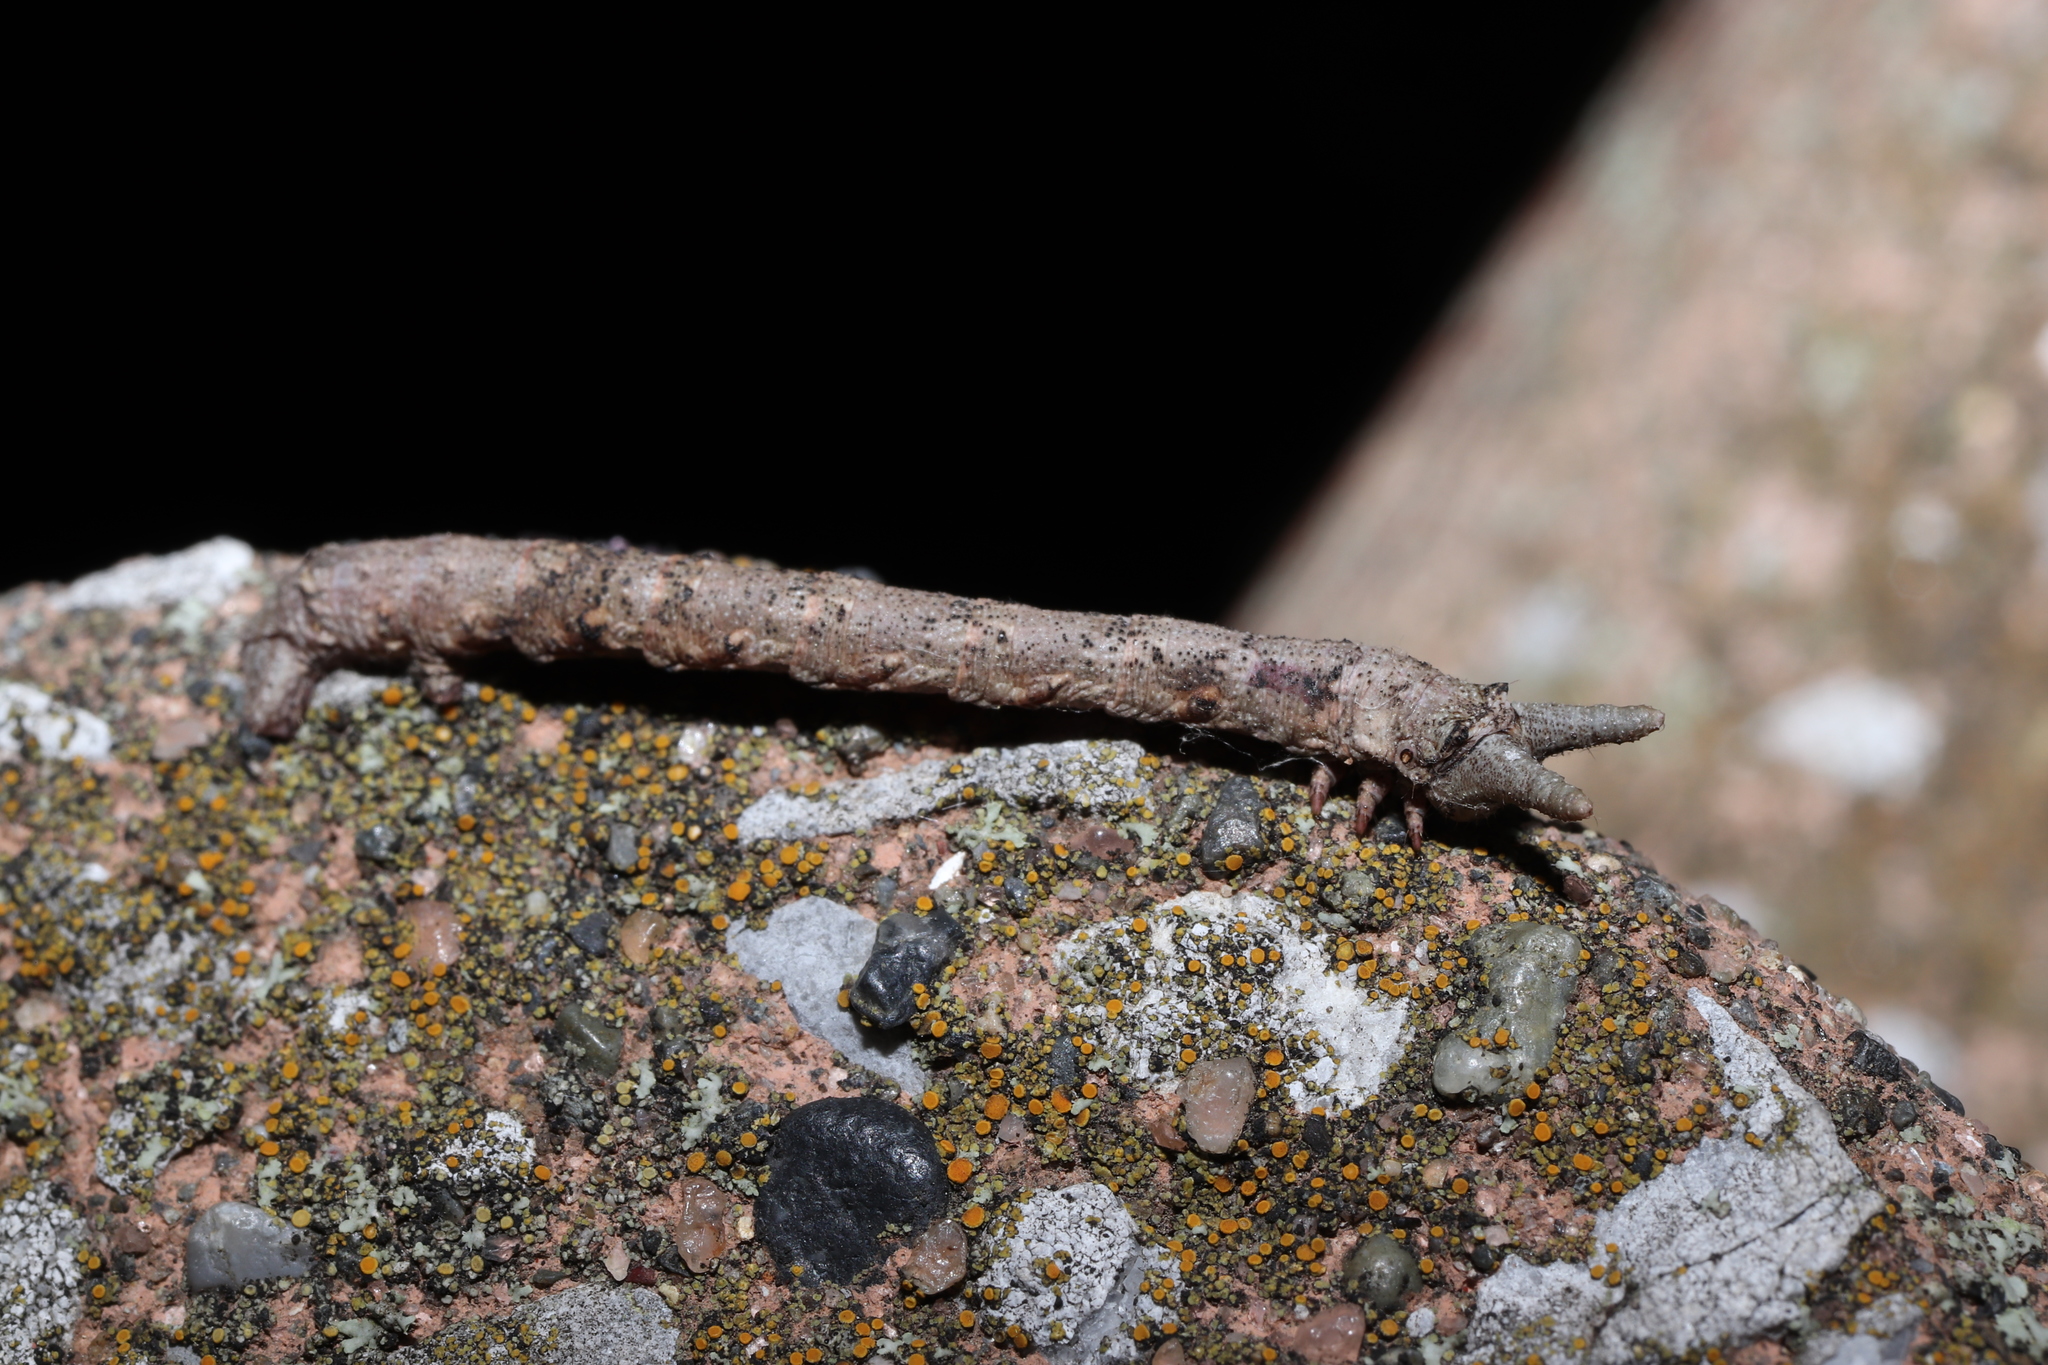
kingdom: Animalia
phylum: Arthropoda
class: Insecta
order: Lepidoptera
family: Geometridae
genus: Biston
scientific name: Biston robustum
